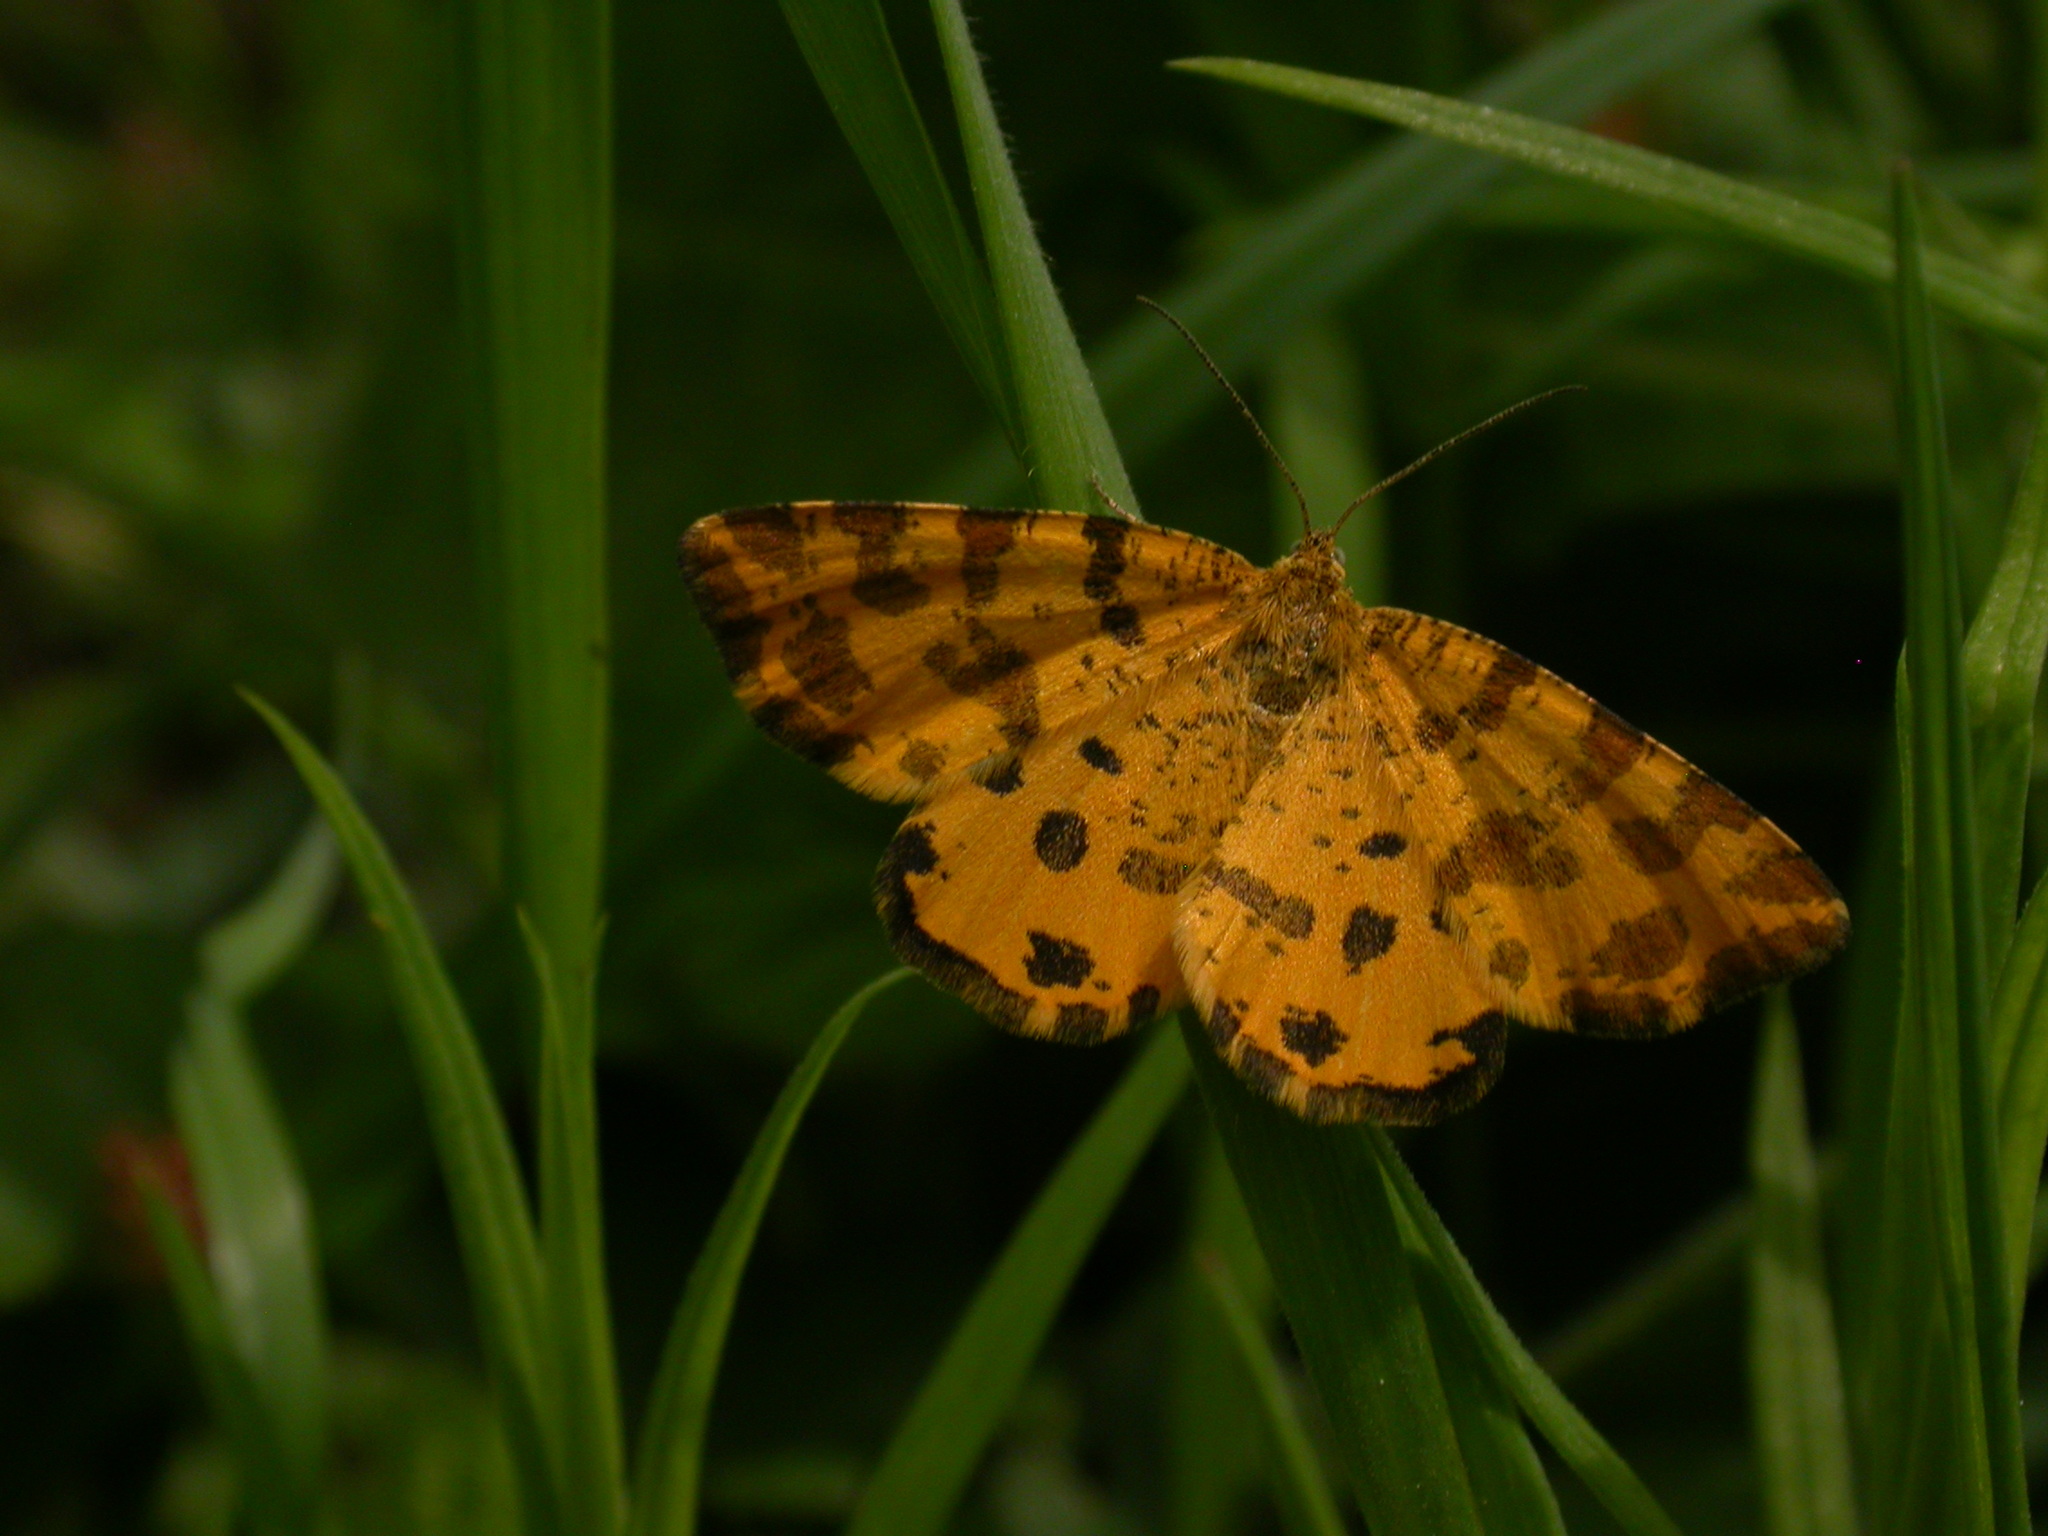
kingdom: Animalia
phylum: Arthropoda
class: Insecta
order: Lepidoptera
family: Geometridae
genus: Pseudopanthera
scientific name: Pseudopanthera macularia
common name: Speckled yellow
